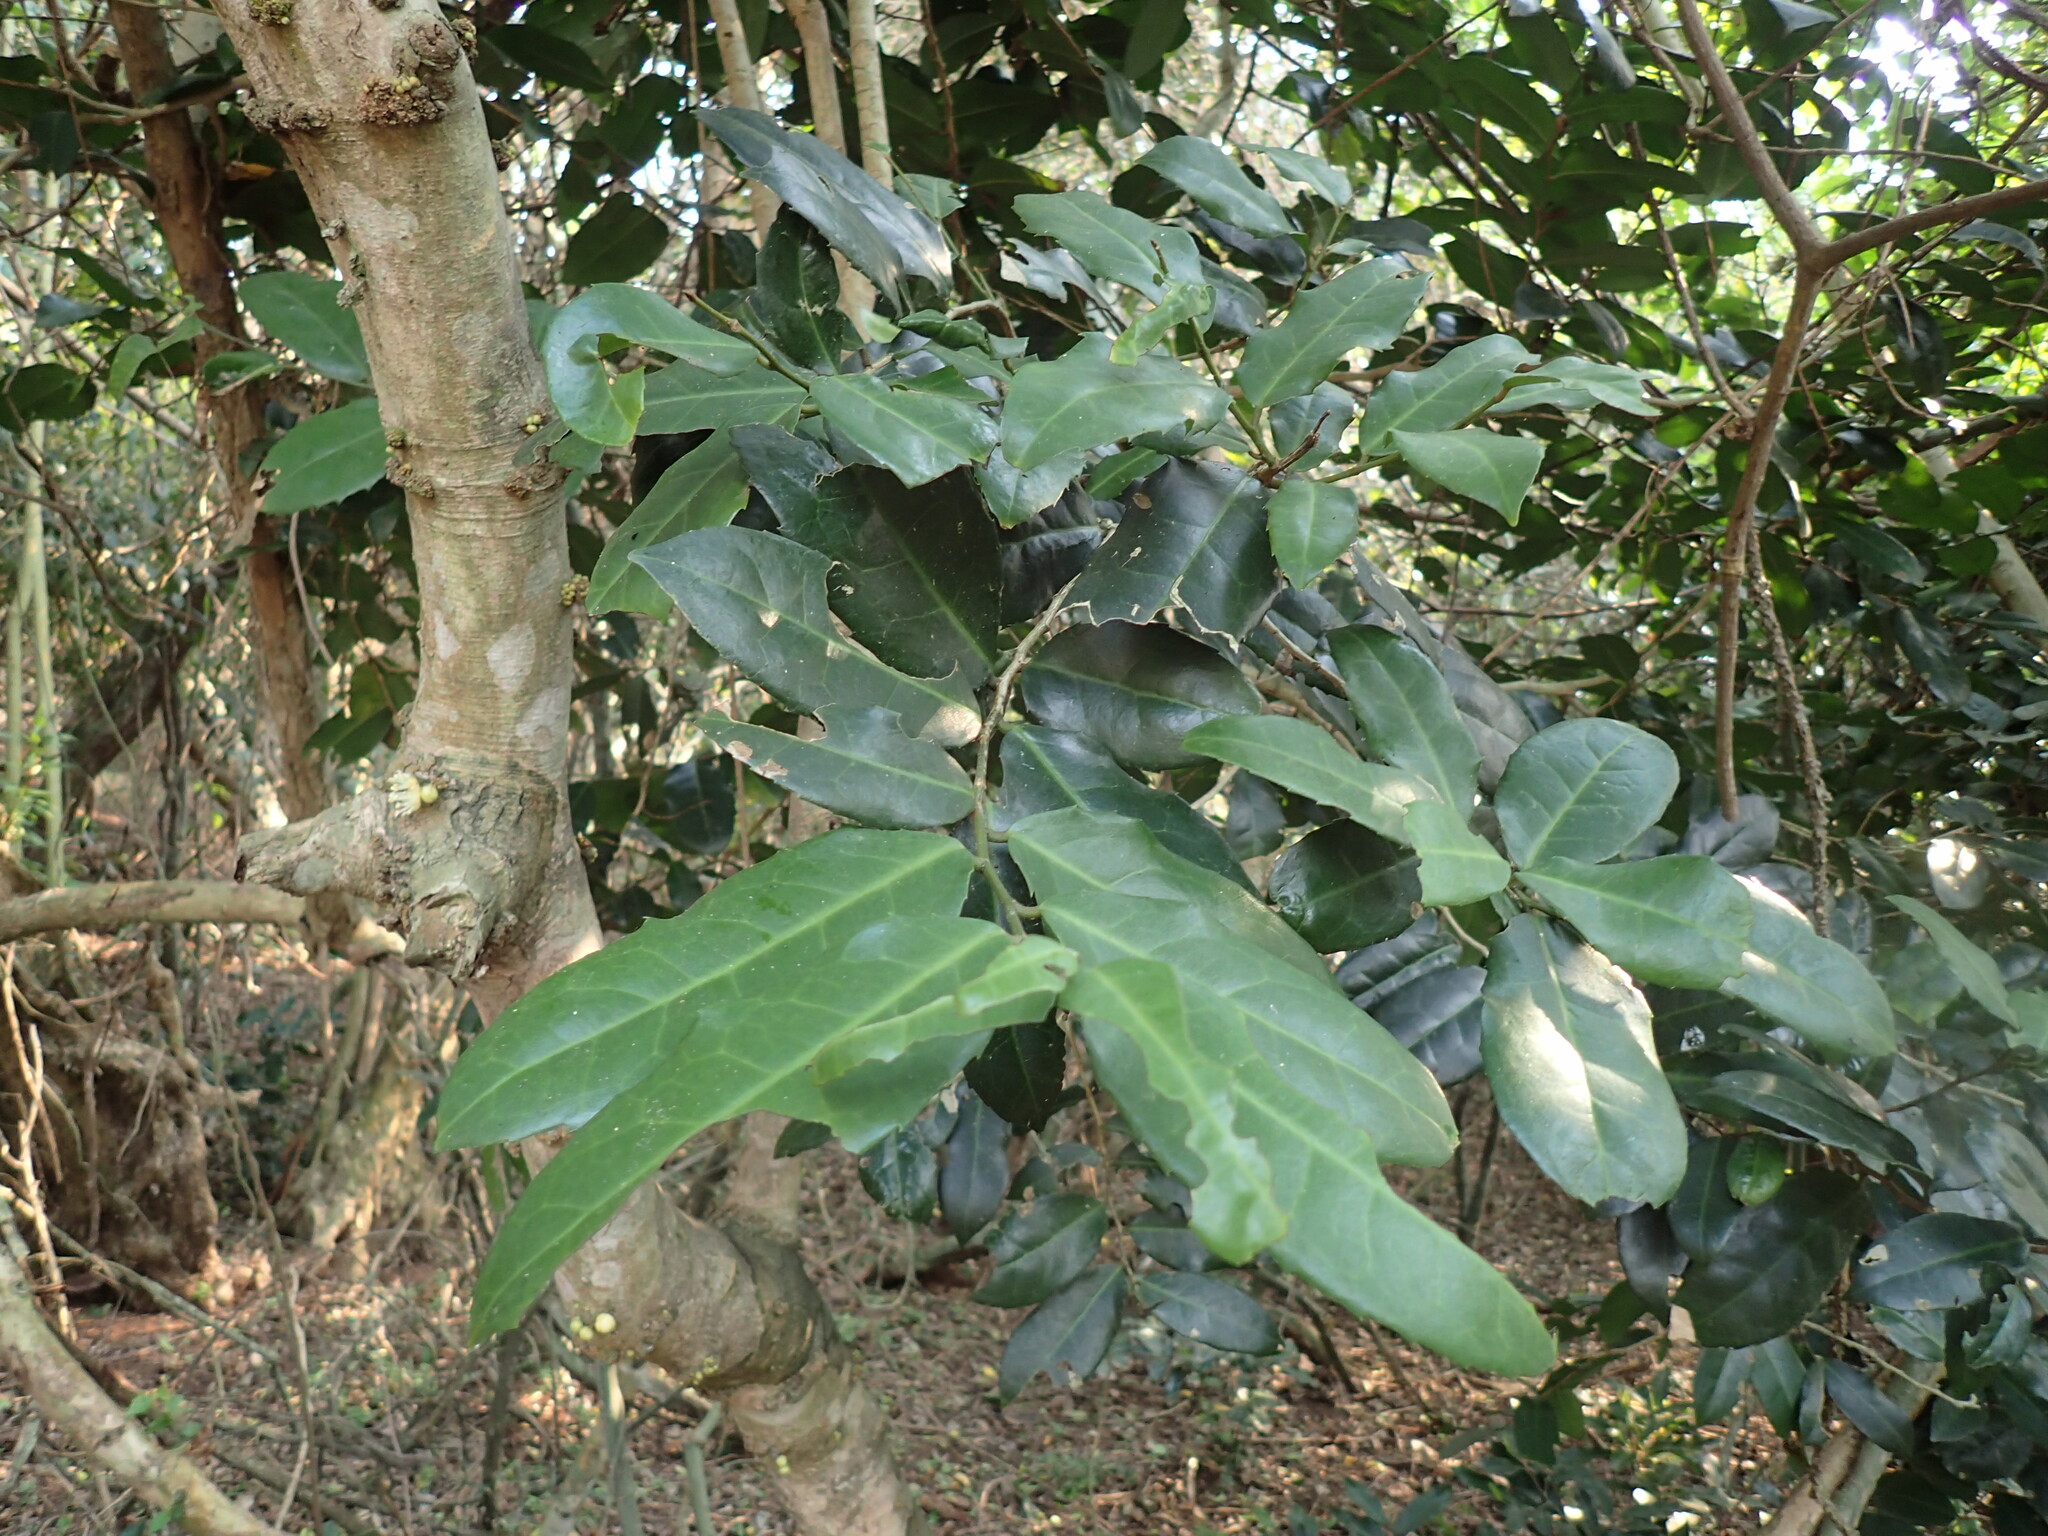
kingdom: Plantae
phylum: Tracheophyta
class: Magnoliopsida
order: Malpighiales
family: Putranjivaceae
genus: Drypetes
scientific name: Drypetes natalensis
